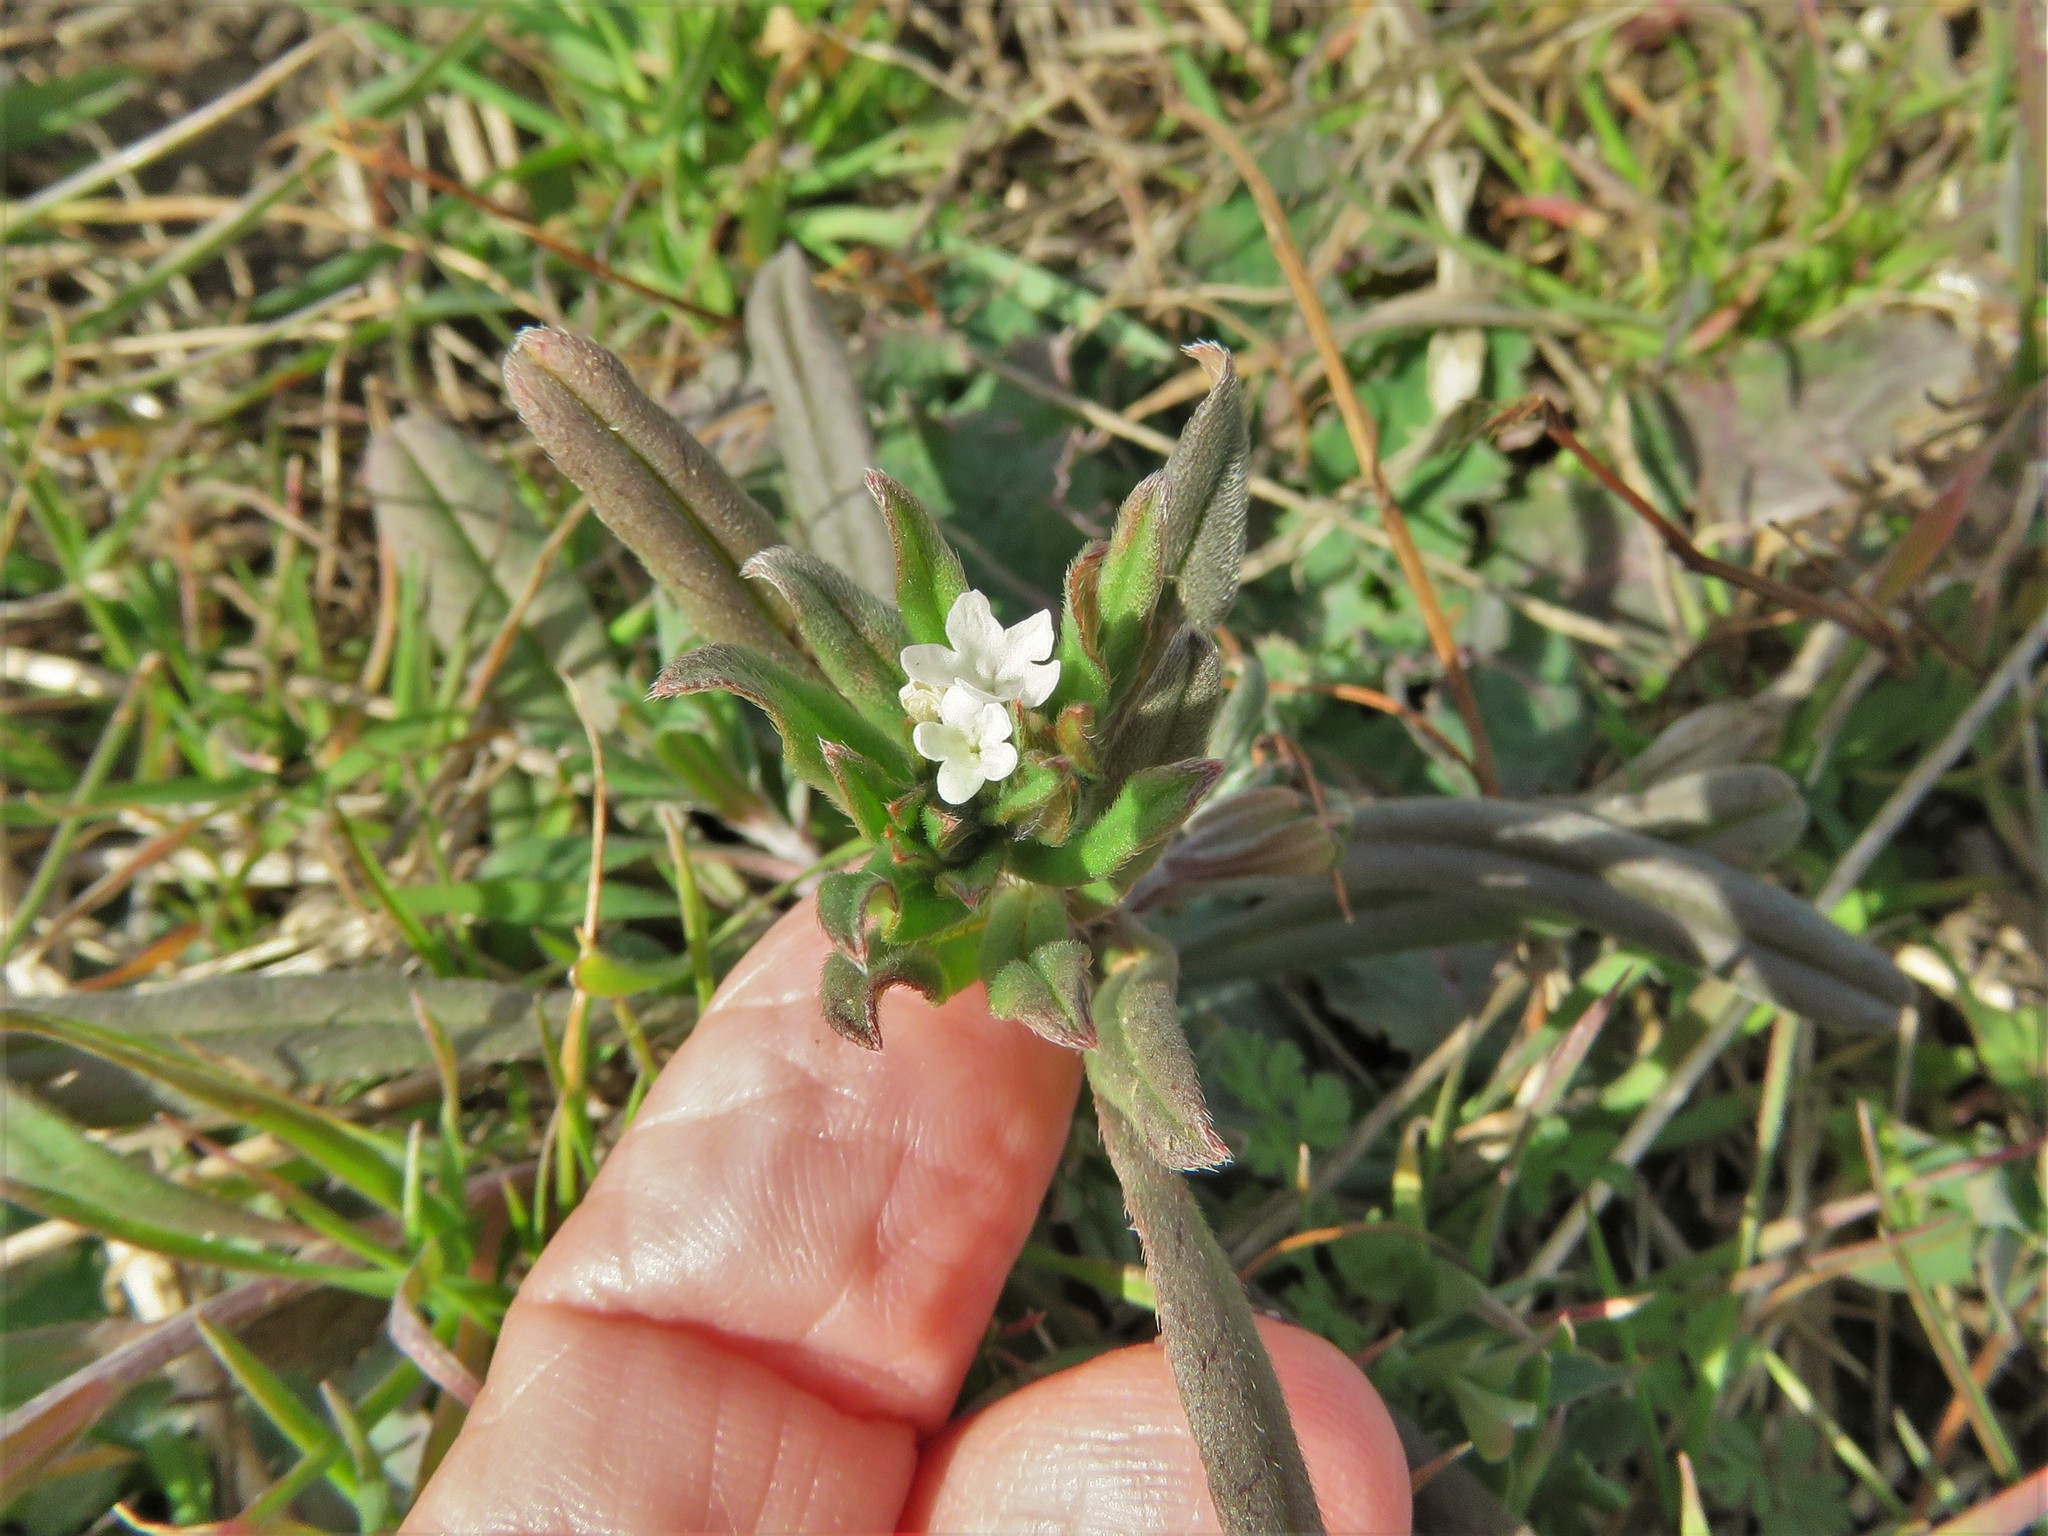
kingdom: Plantae
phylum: Tracheophyta
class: Magnoliopsida
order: Boraginales
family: Boraginaceae
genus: Buglossoides
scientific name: Buglossoides arvensis
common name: Corn gromwell
